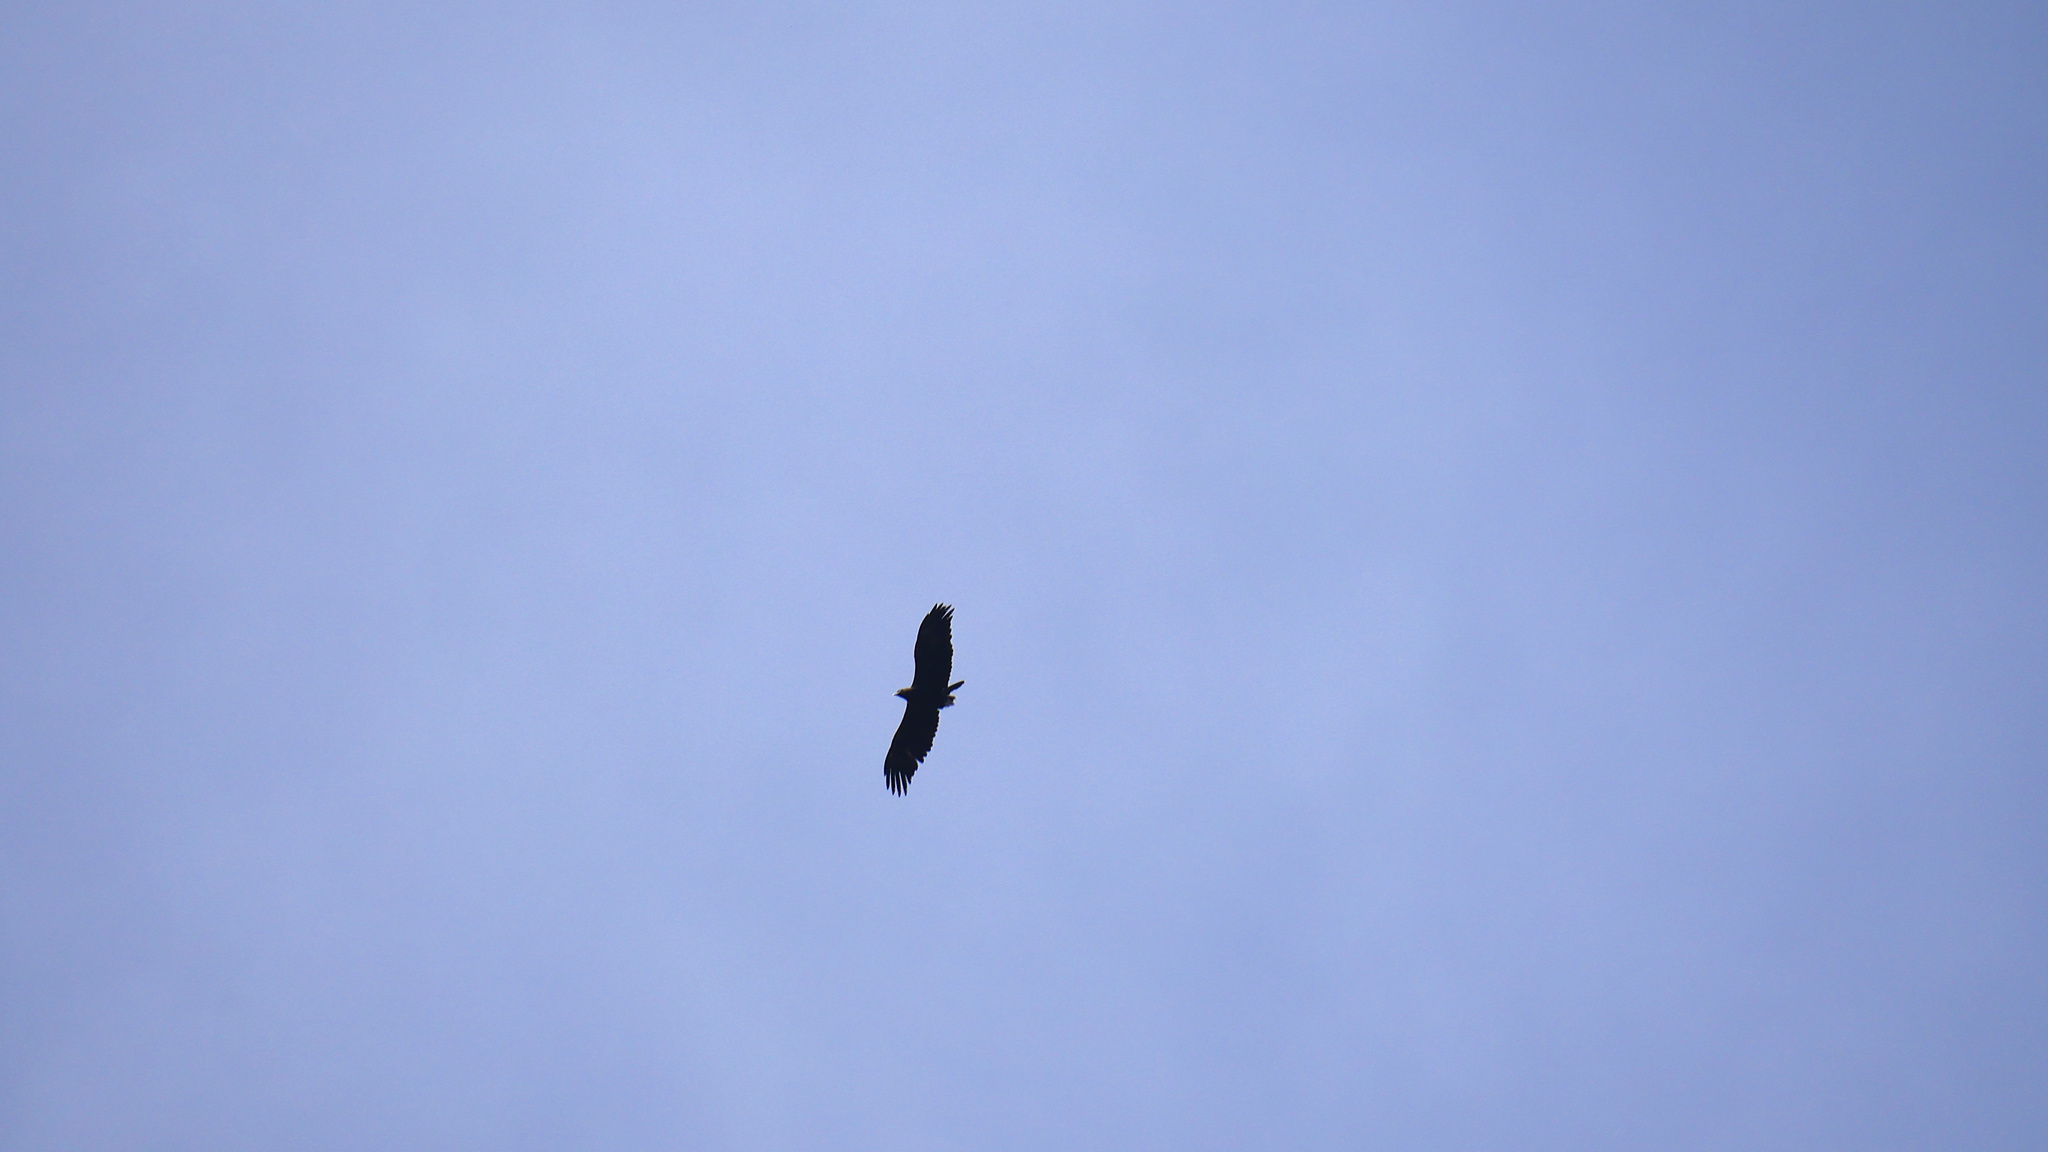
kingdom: Animalia
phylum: Chordata
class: Aves
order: Accipitriformes
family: Accipitridae
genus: Aquila
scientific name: Aquila audax
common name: Wedge-tailed eagle
